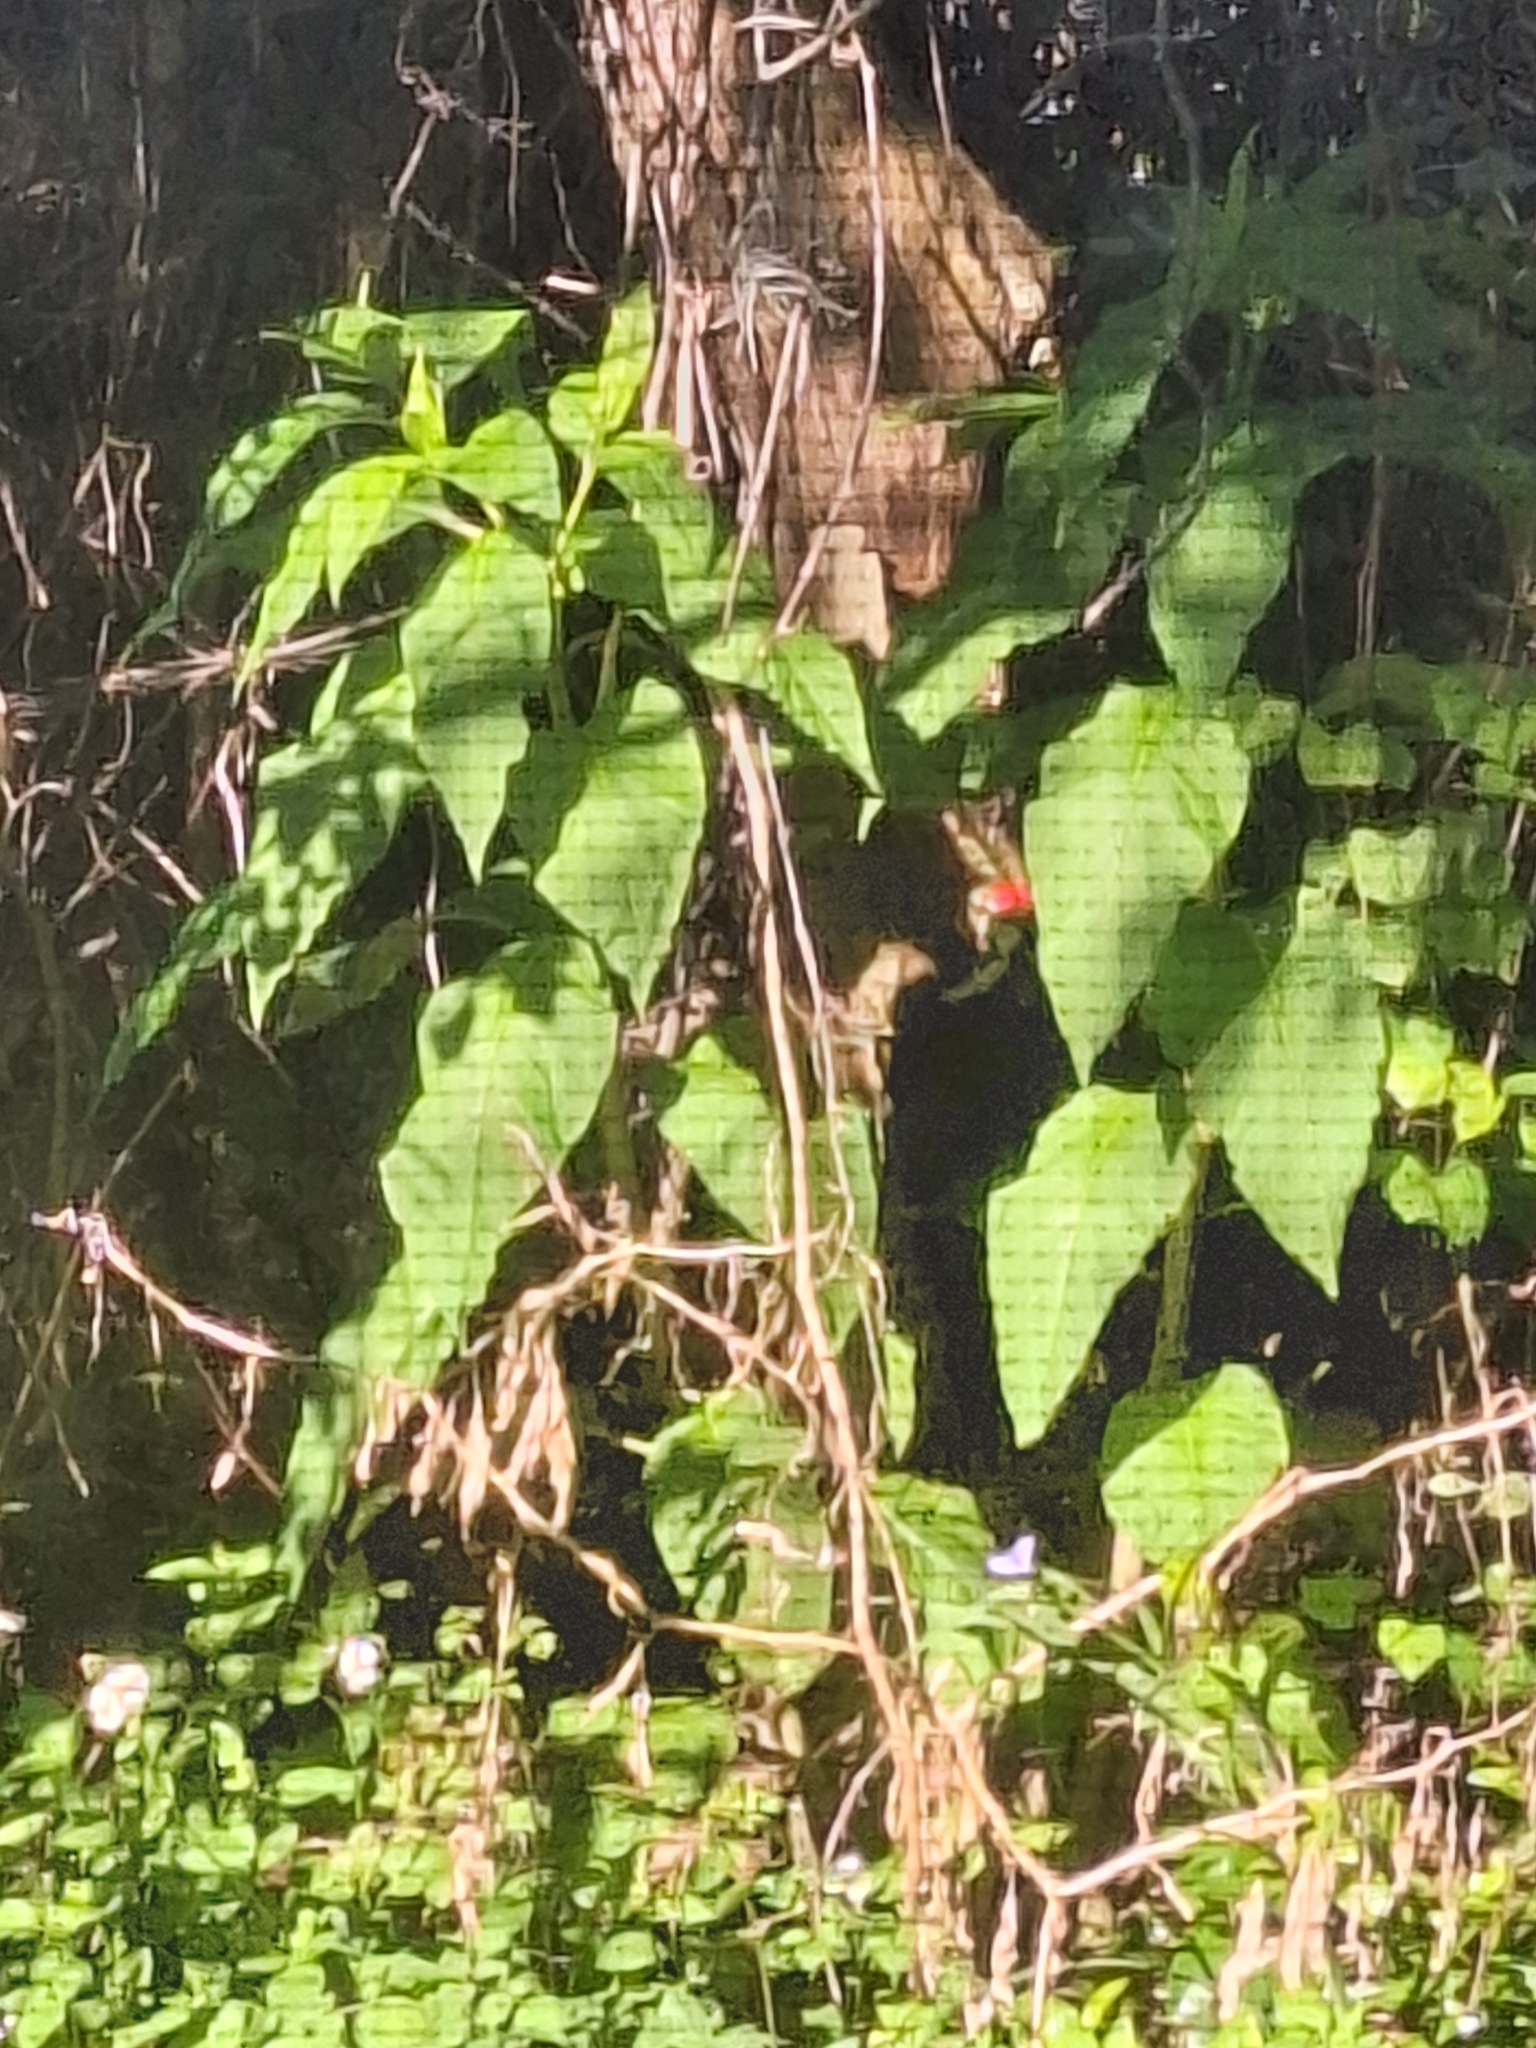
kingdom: Animalia
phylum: Chordata
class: Aves
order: Piciformes
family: Picidae
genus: Dryocopus
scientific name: Dryocopus pileatus
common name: Pileated woodpecker
